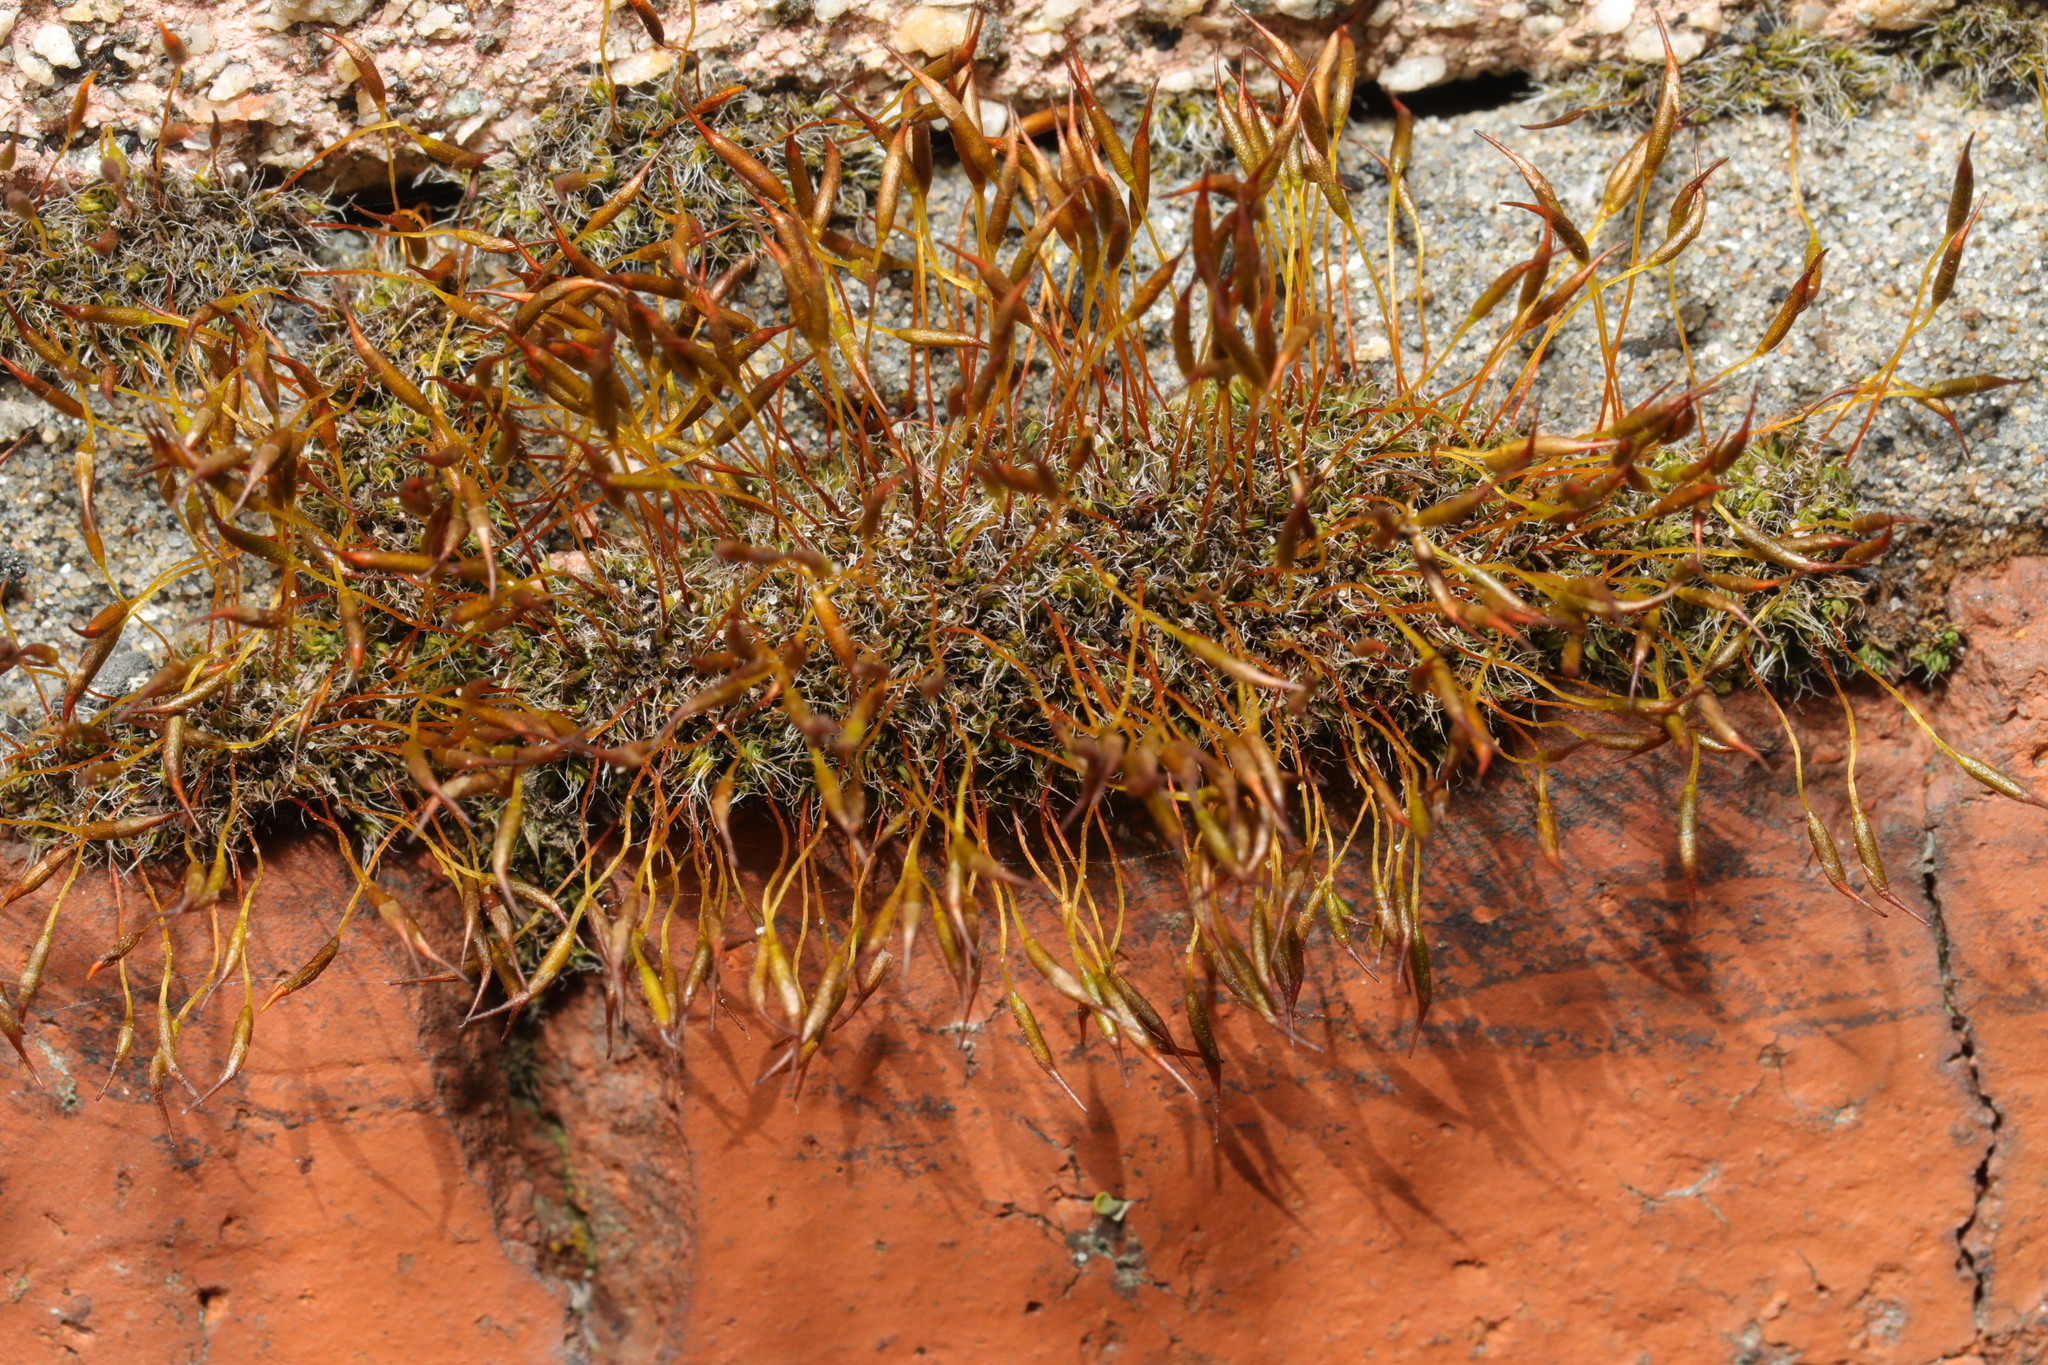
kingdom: Plantae
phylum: Bryophyta
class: Bryopsida
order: Pottiales
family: Pottiaceae
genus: Tortula
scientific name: Tortula muralis
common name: Wall screw-moss
